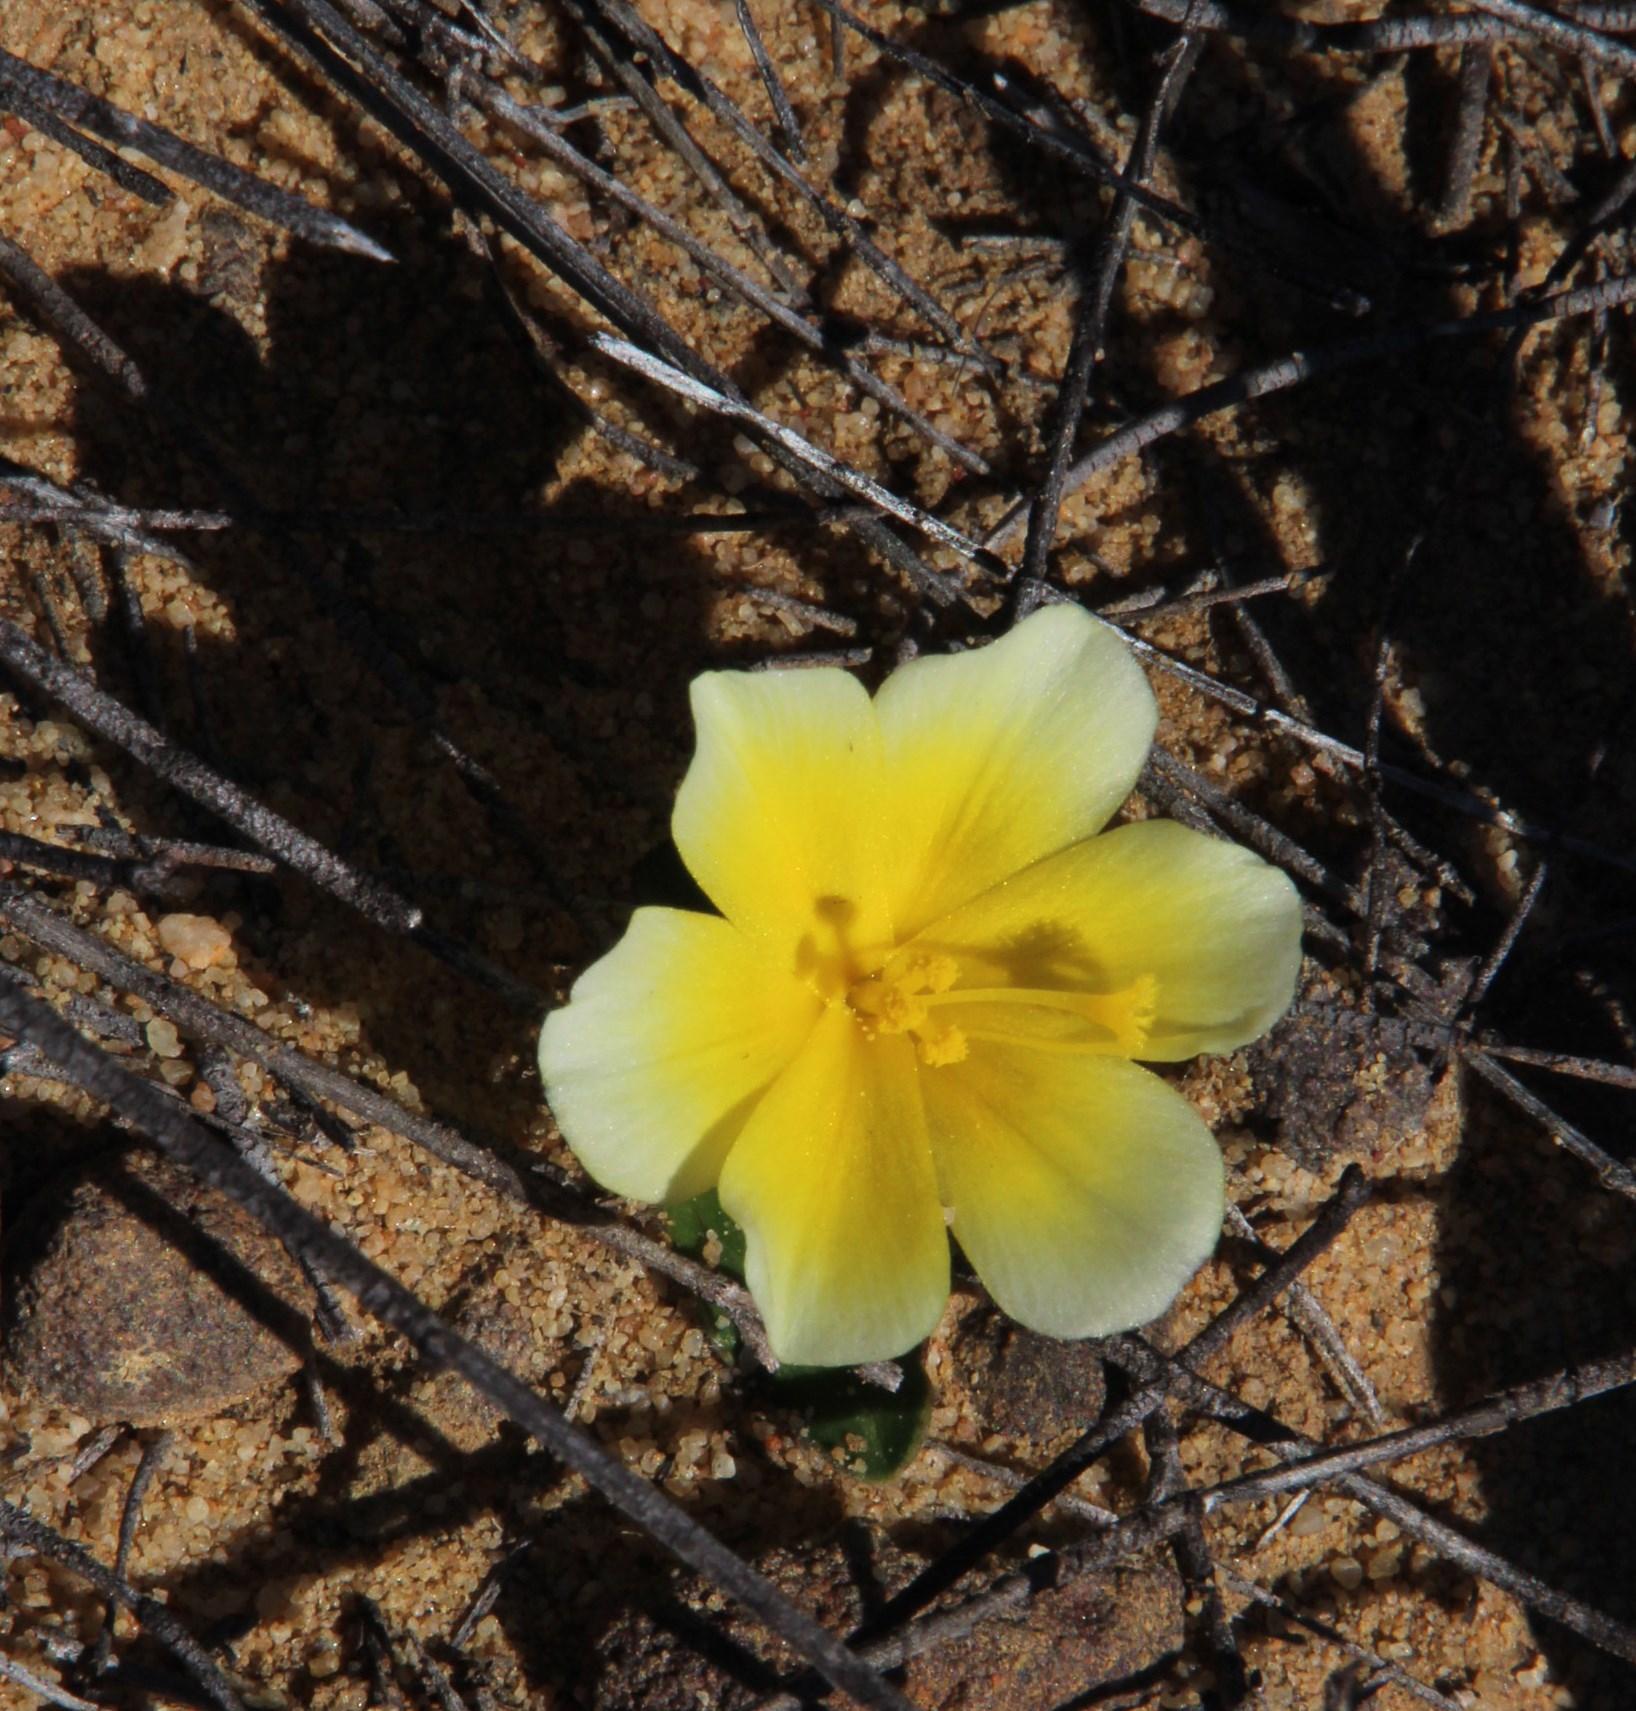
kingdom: Plantae
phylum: Tracheophyta
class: Liliopsida
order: Asparagales
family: Iridaceae
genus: Moraea
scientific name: Moraea fugacissima
